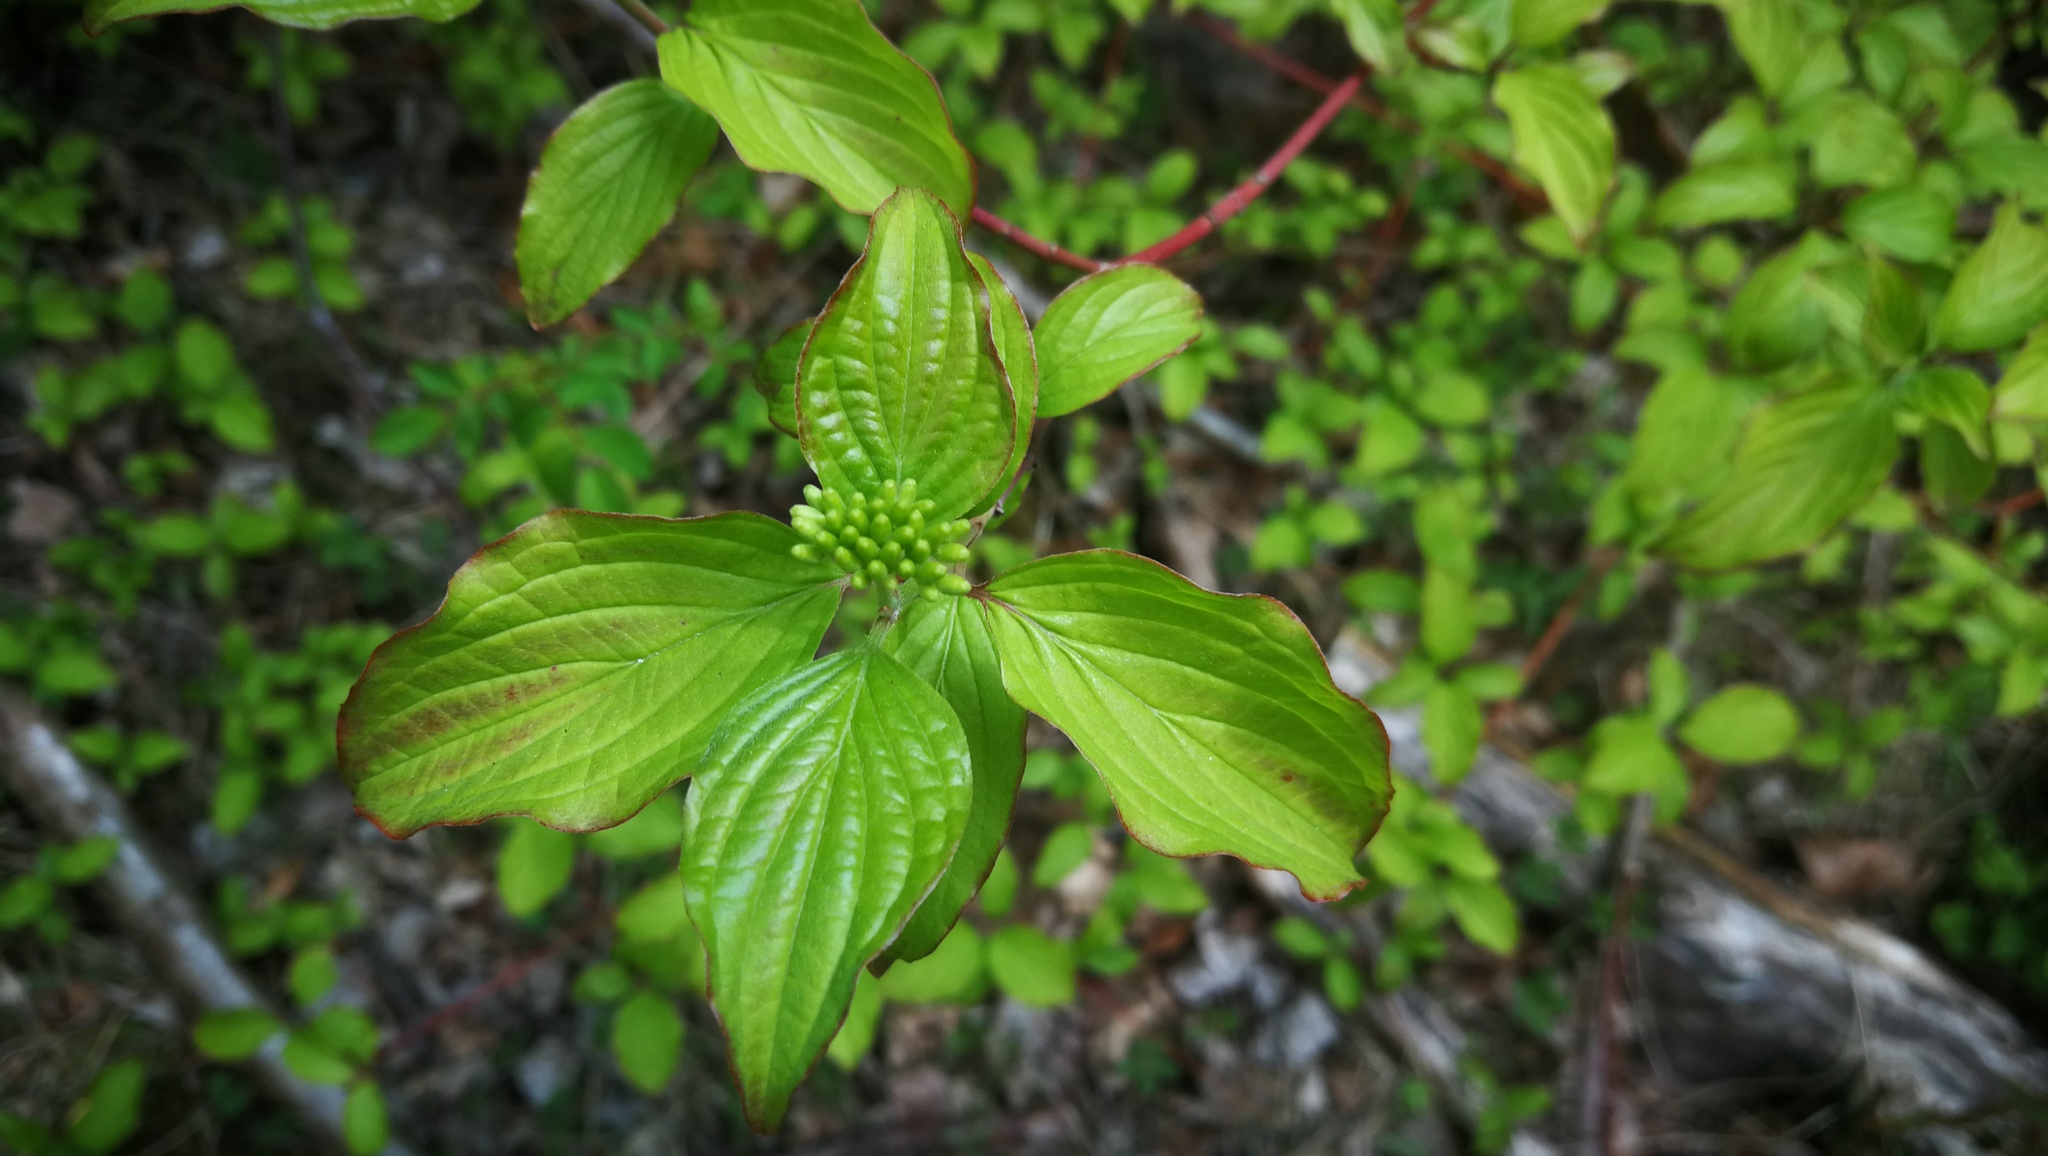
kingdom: Plantae
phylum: Tracheophyta
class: Magnoliopsida
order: Cornales
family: Cornaceae
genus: Cornus
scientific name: Cornus sanguinea
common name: Dogwood
